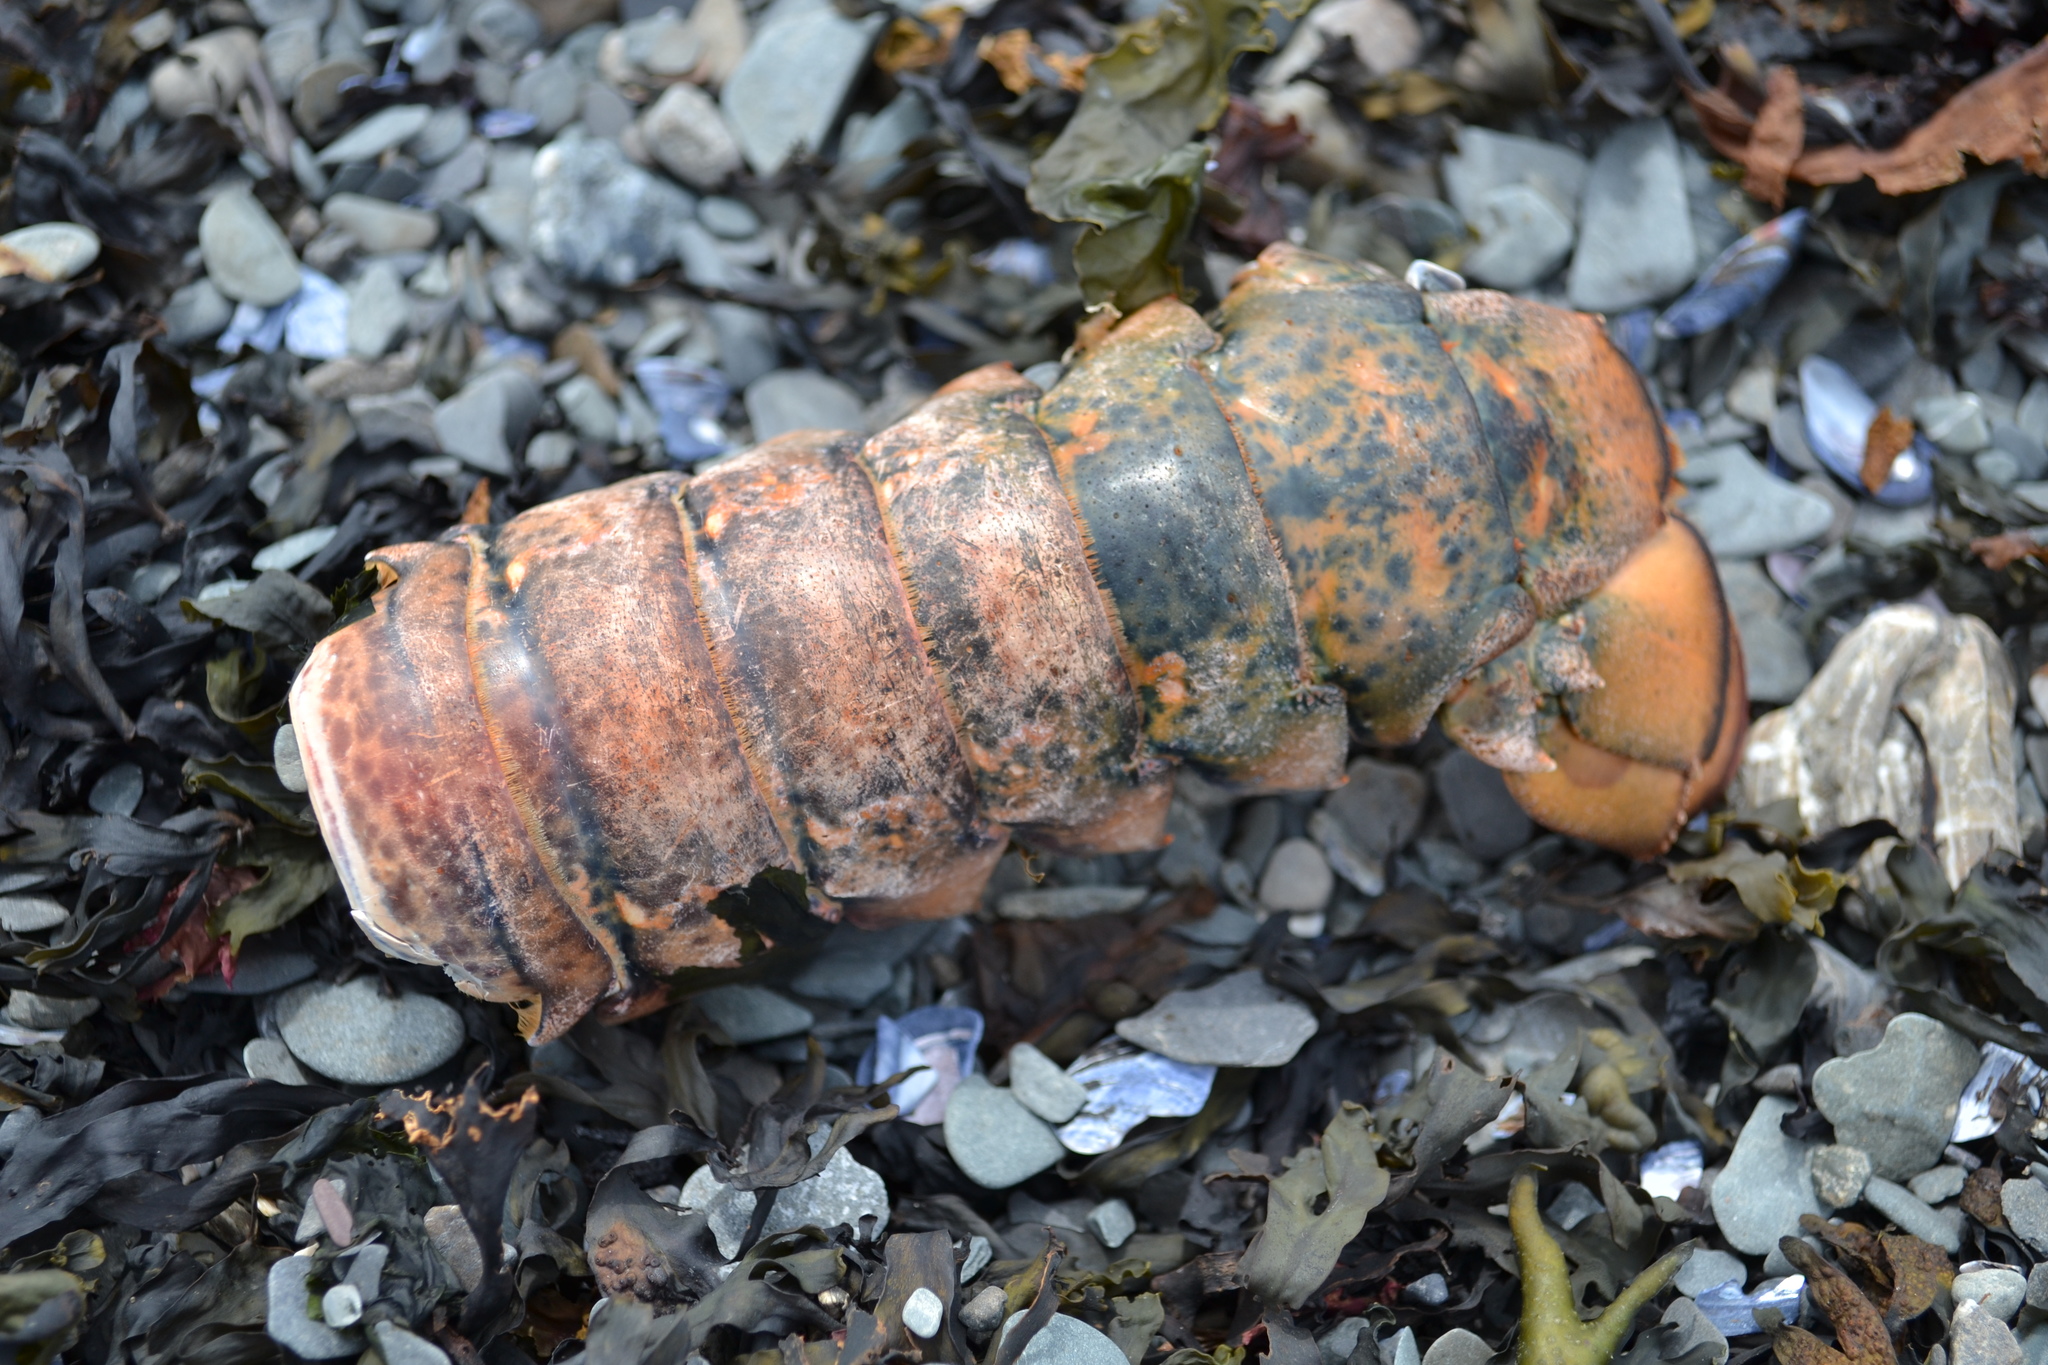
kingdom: Animalia
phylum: Arthropoda
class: Malacostraca
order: Decapoda
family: Nephropidae
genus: Homarus
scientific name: Homarus americanus
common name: American lobster
